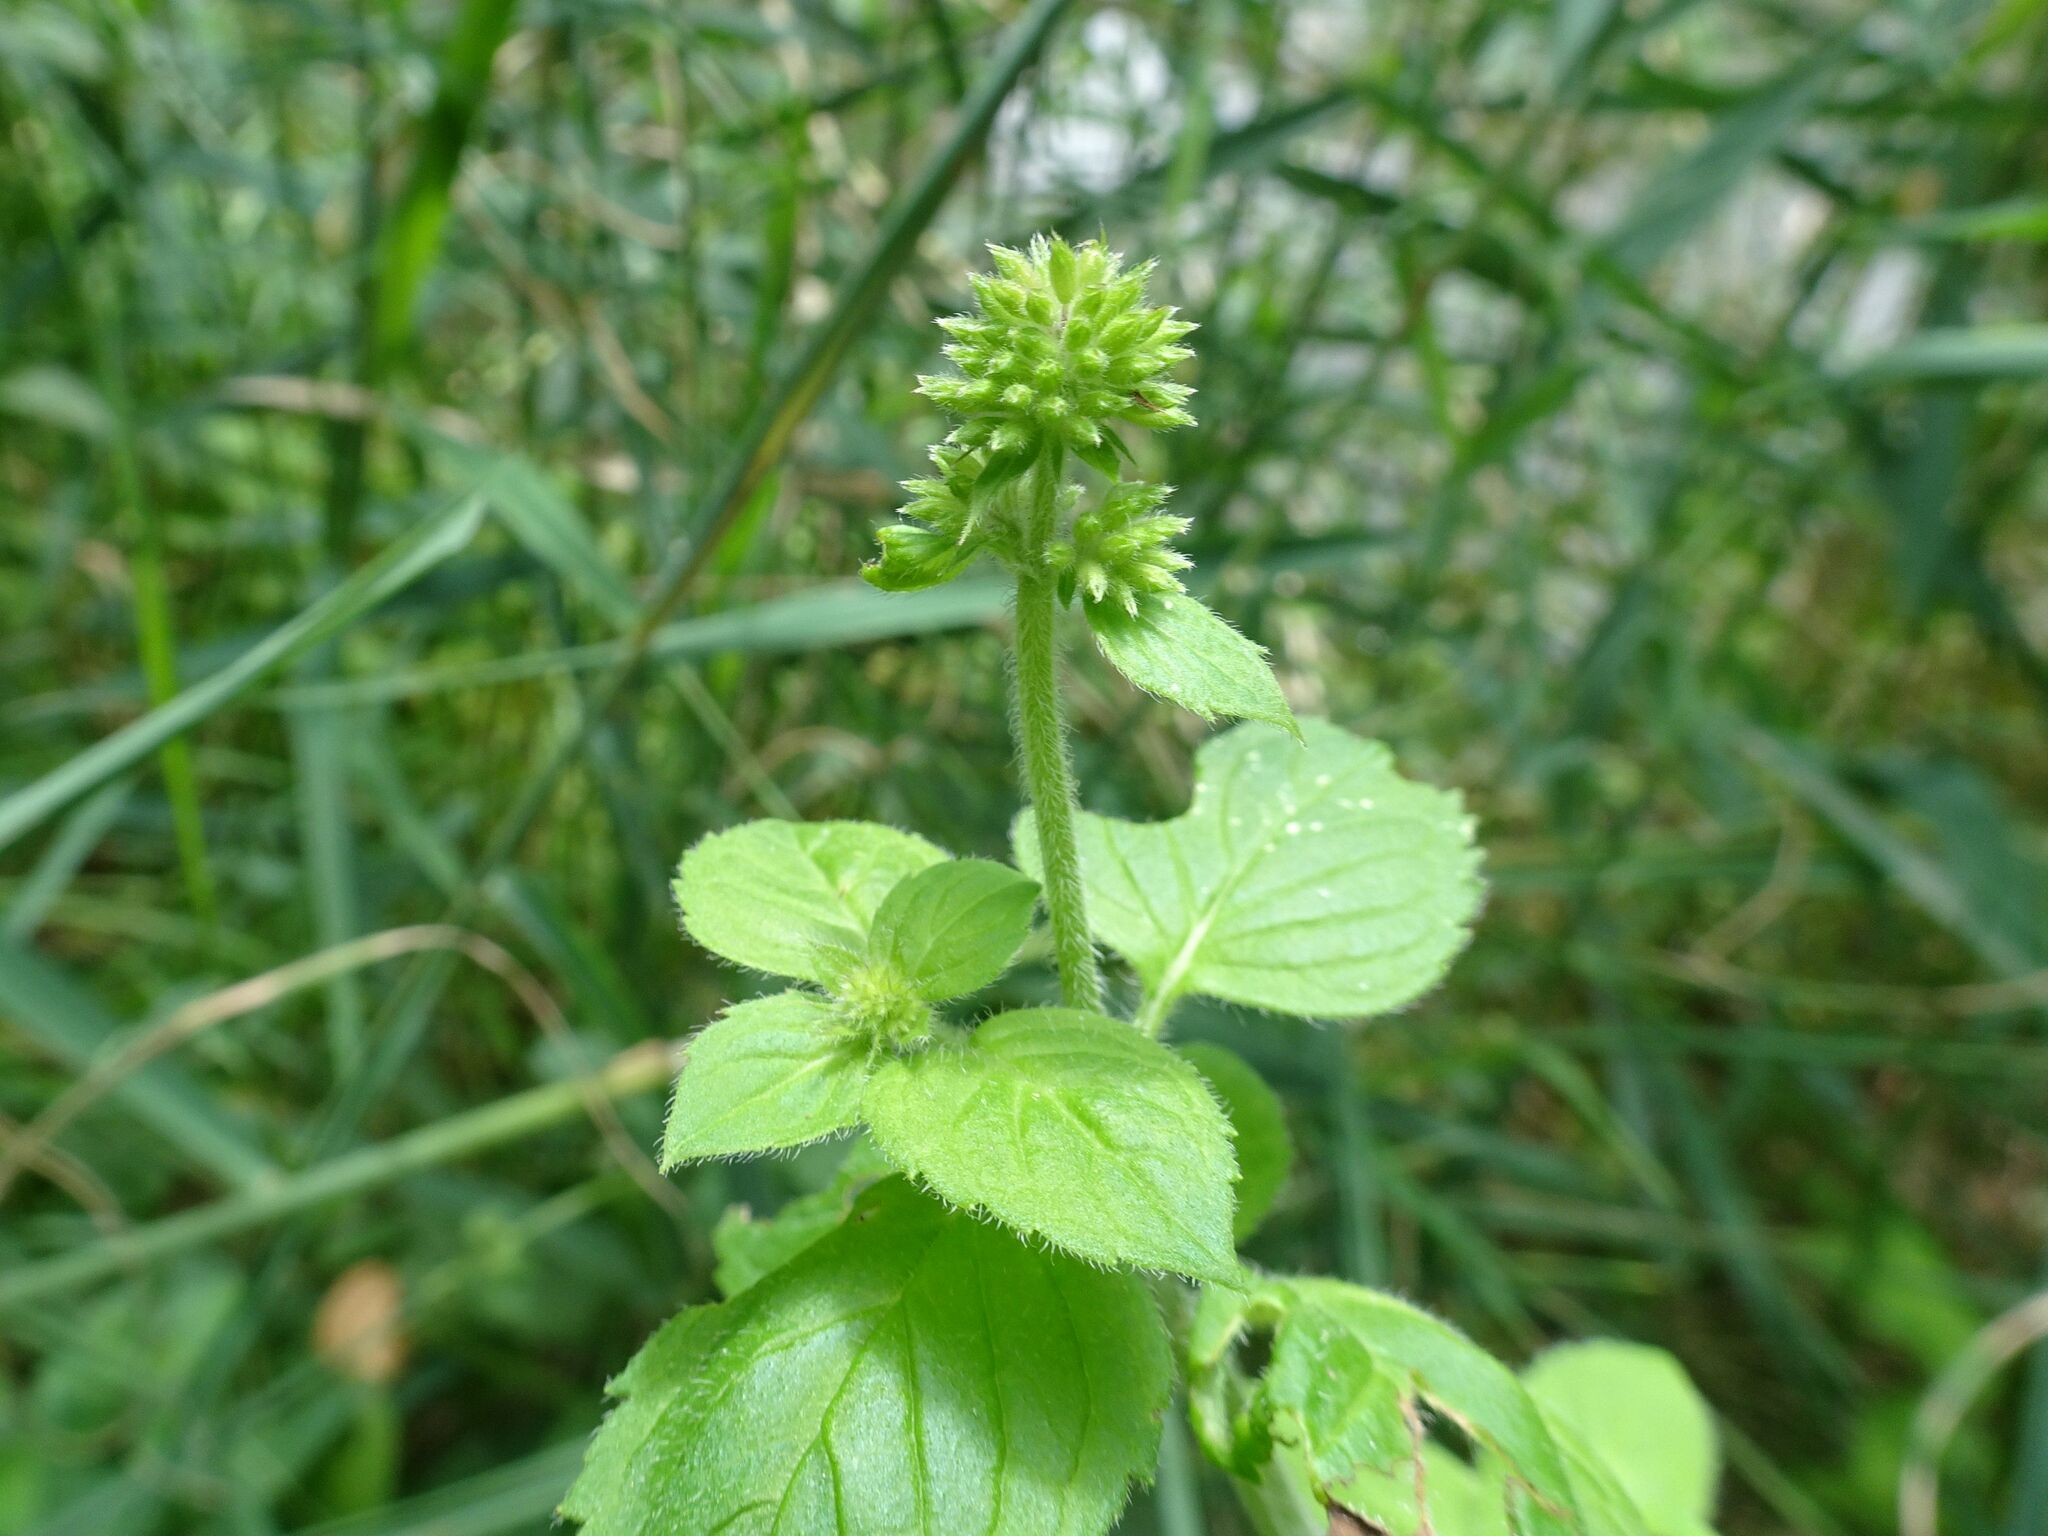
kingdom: Plantae
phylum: Tracheophyta
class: Magnoliopsida
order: Lamiales
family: Lamiaceae
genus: Mentha
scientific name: Mentha aquatica
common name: Water mint
